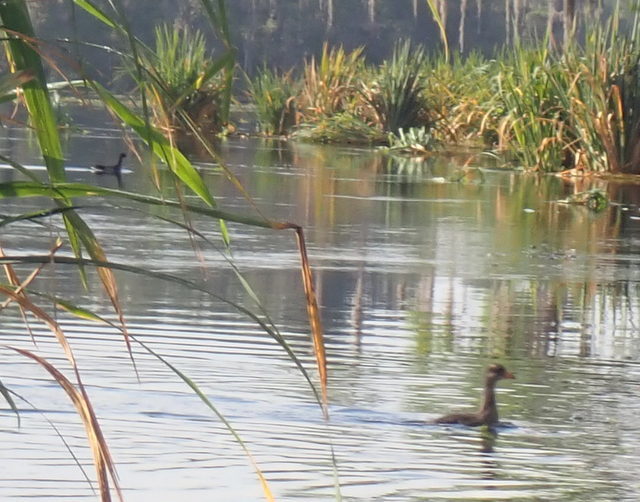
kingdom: Animalia
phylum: Chordata
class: Aves
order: Gruiformes
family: Rallidae
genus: Gallinula
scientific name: Gallinula chloropus
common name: Common moorhen
